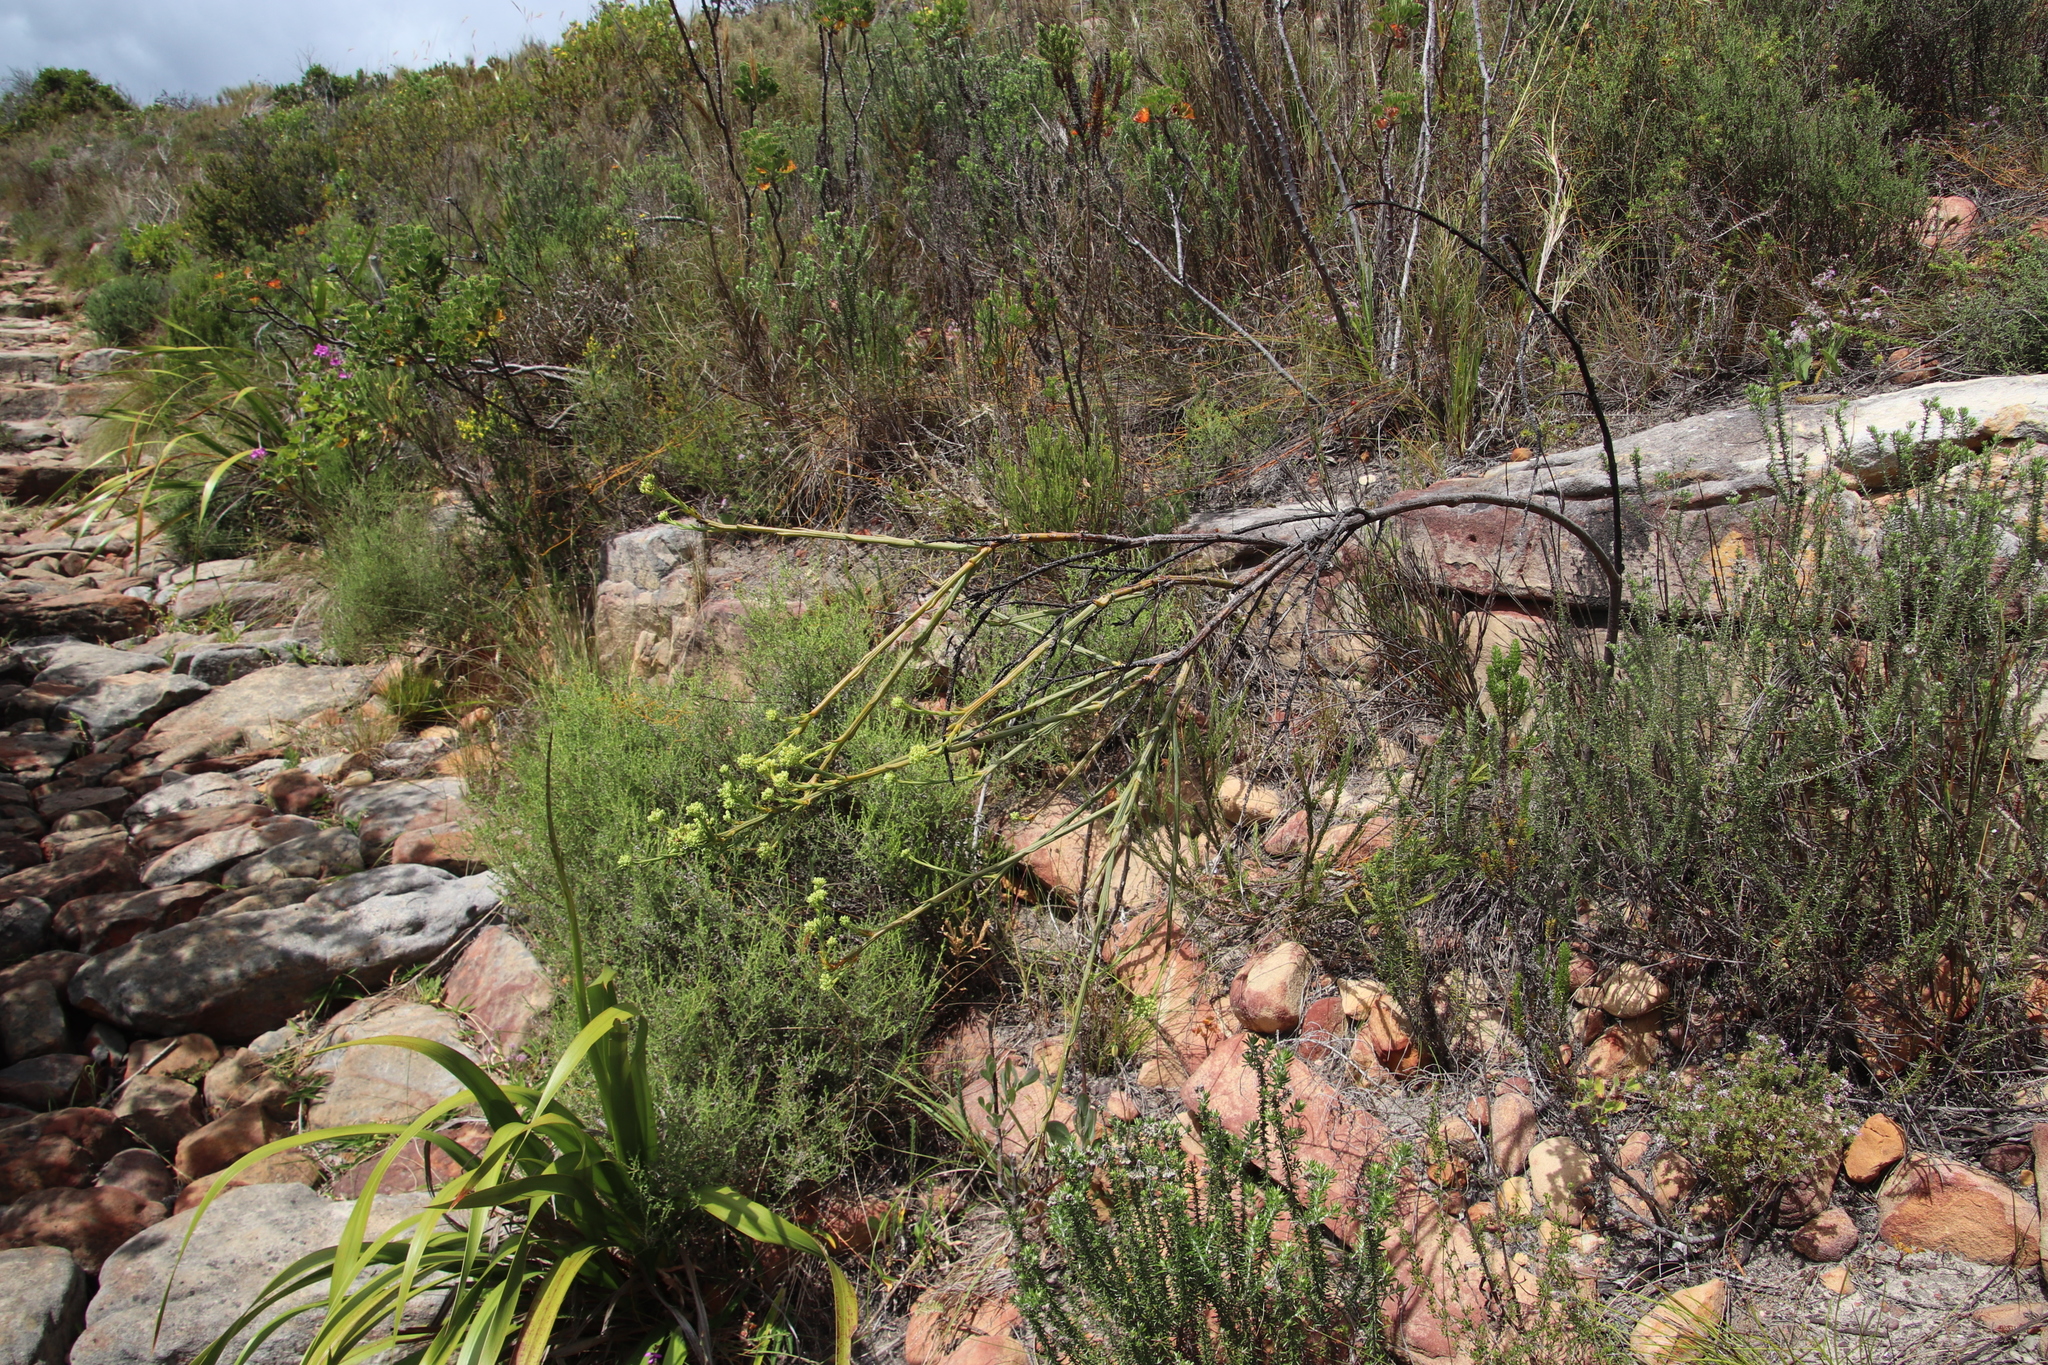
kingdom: Plantae
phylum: Tracheophyta
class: Magnoliopsida
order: Santalales
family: Thesiaceae
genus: Thesium
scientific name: Thesium strictum
